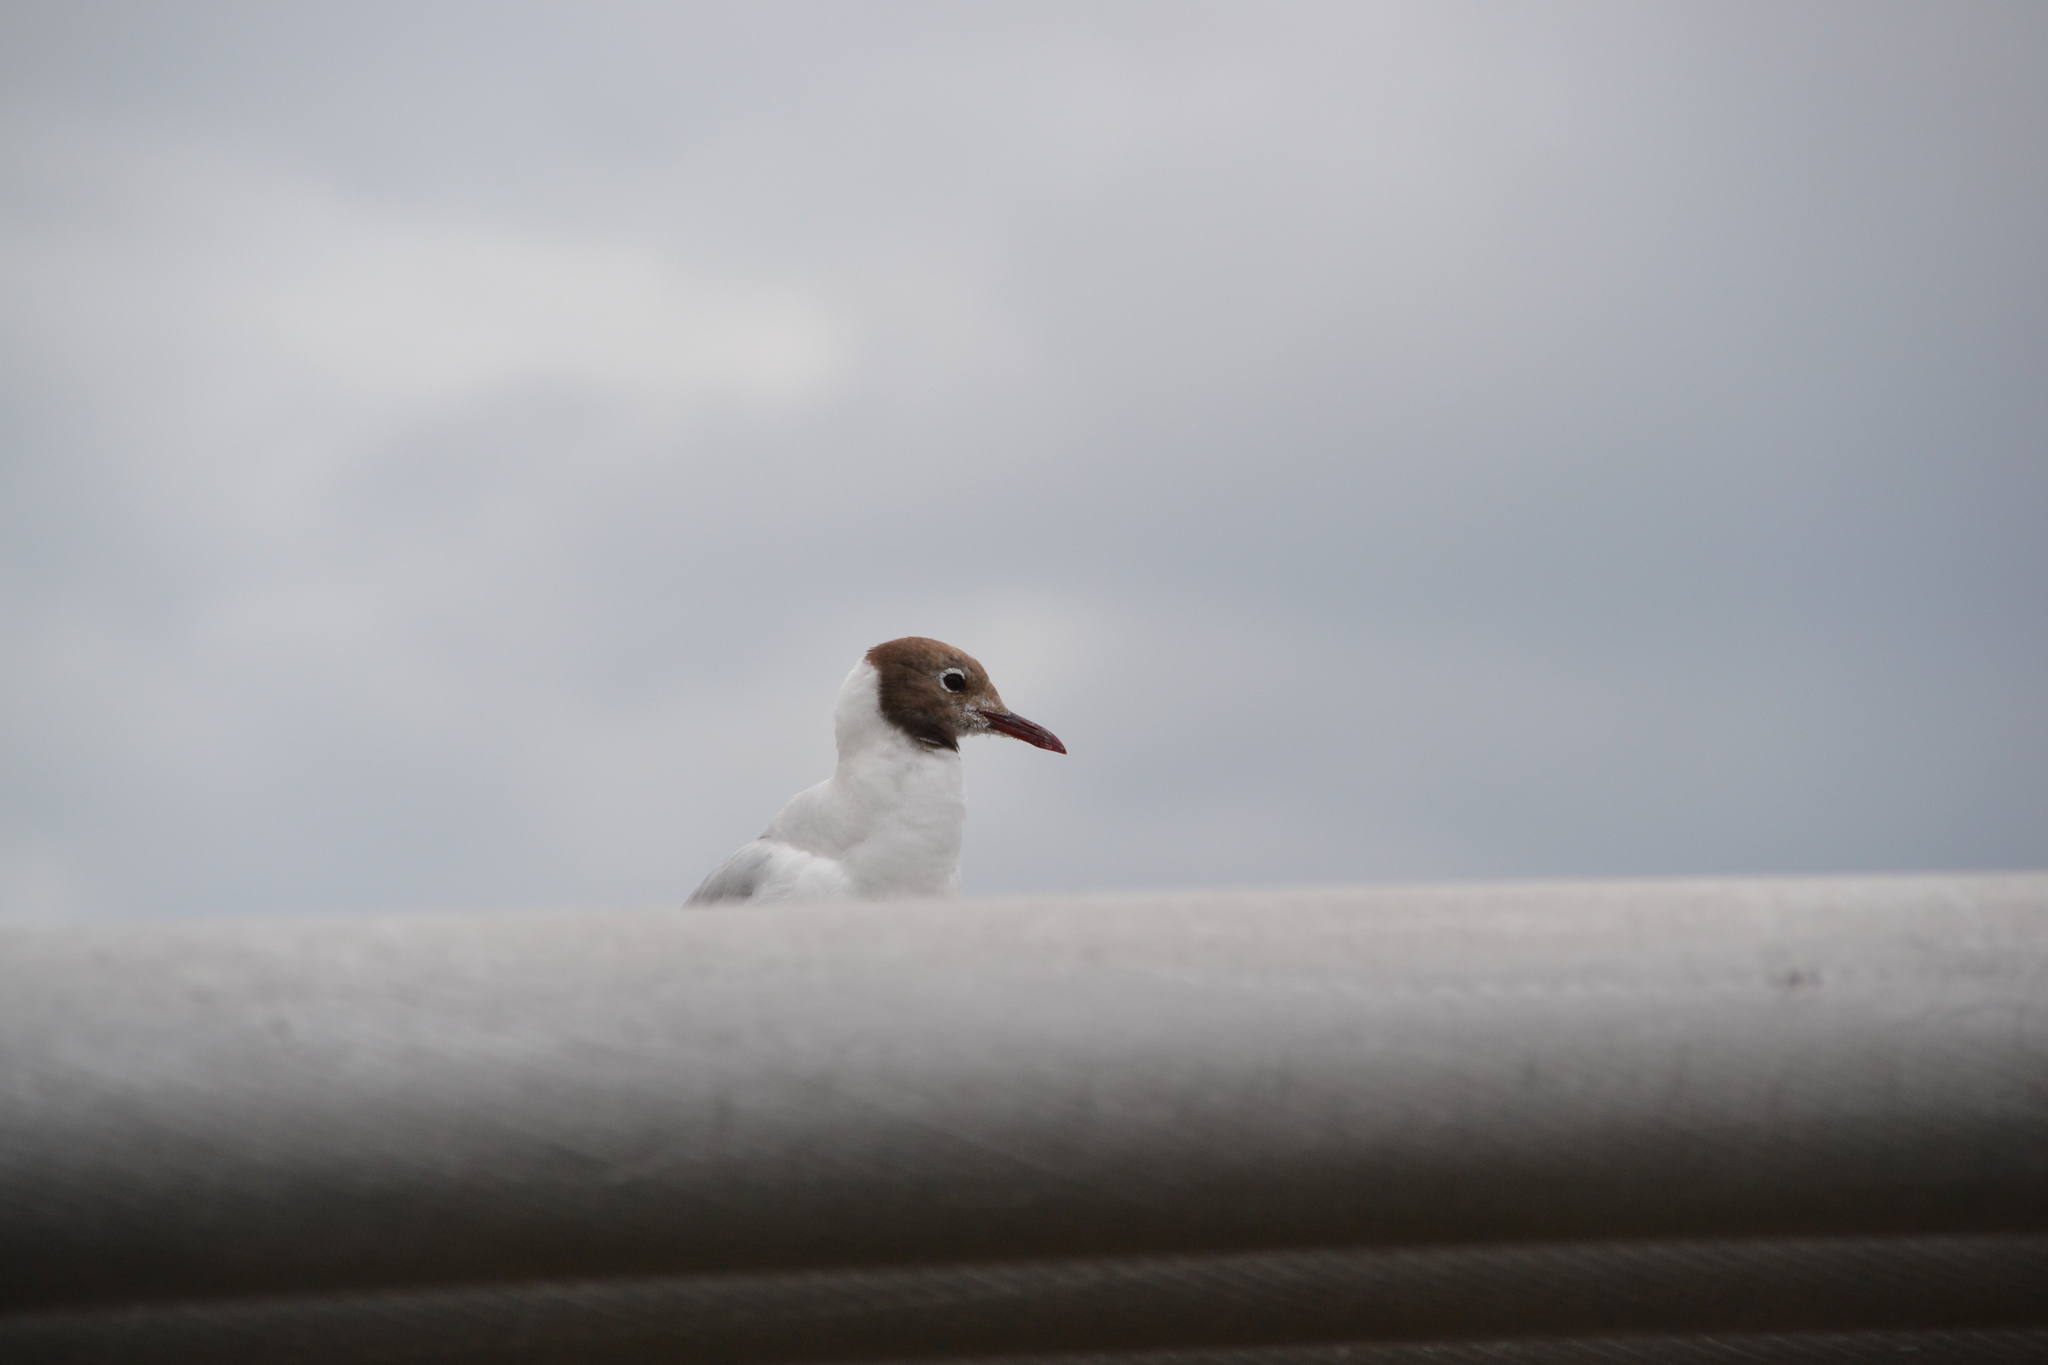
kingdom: Animalia
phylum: Chordata
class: Aves
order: Charadriiformes
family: Laridae
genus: Chroicocephalus
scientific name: Chroicocephalus ridibundus
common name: Black-headed gull
